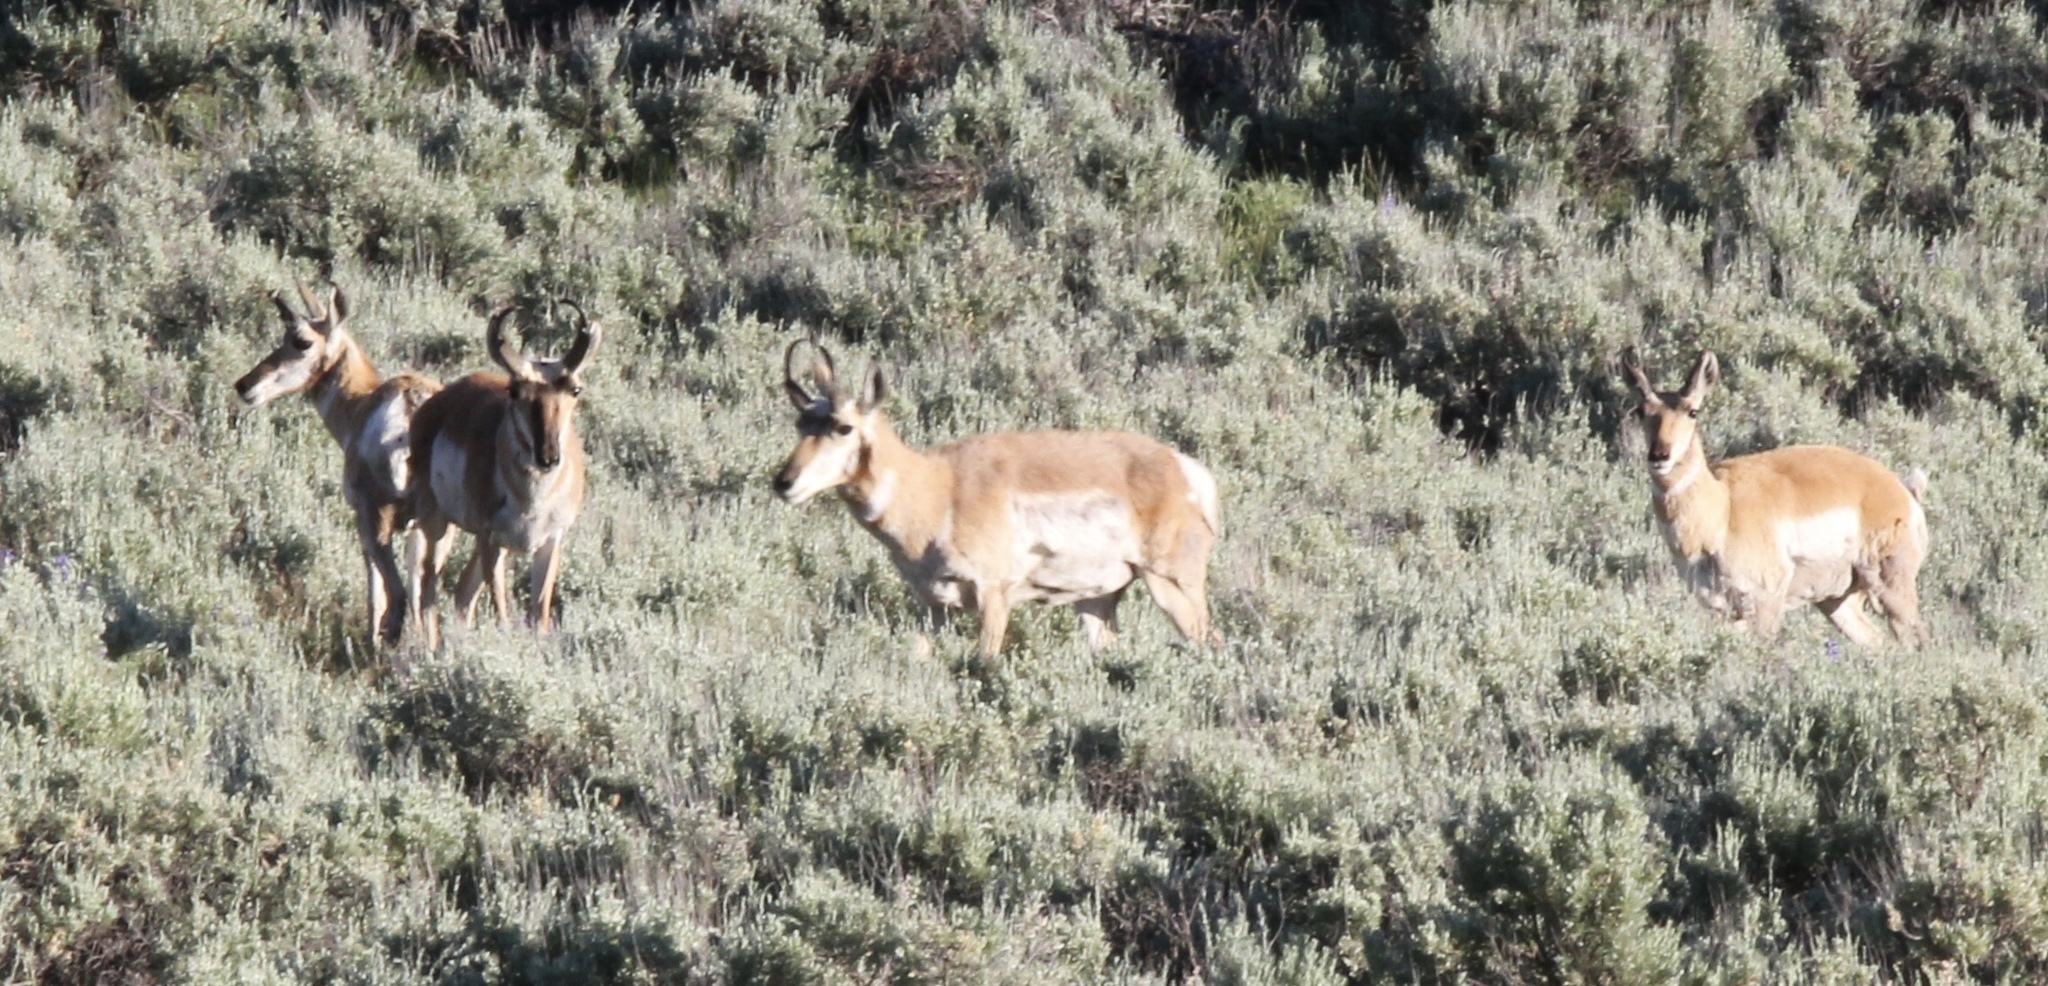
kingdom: Animalia
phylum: Chordata
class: Mammalia
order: Artiodactyla
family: Antilocapridae
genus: Antilocapra
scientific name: Antilocapra americana
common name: Pronghorn
